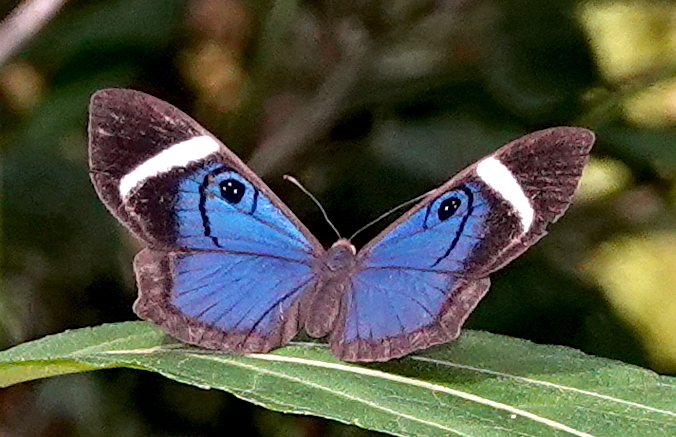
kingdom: Animalia
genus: Mesosemia
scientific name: Mesosemia mevania
